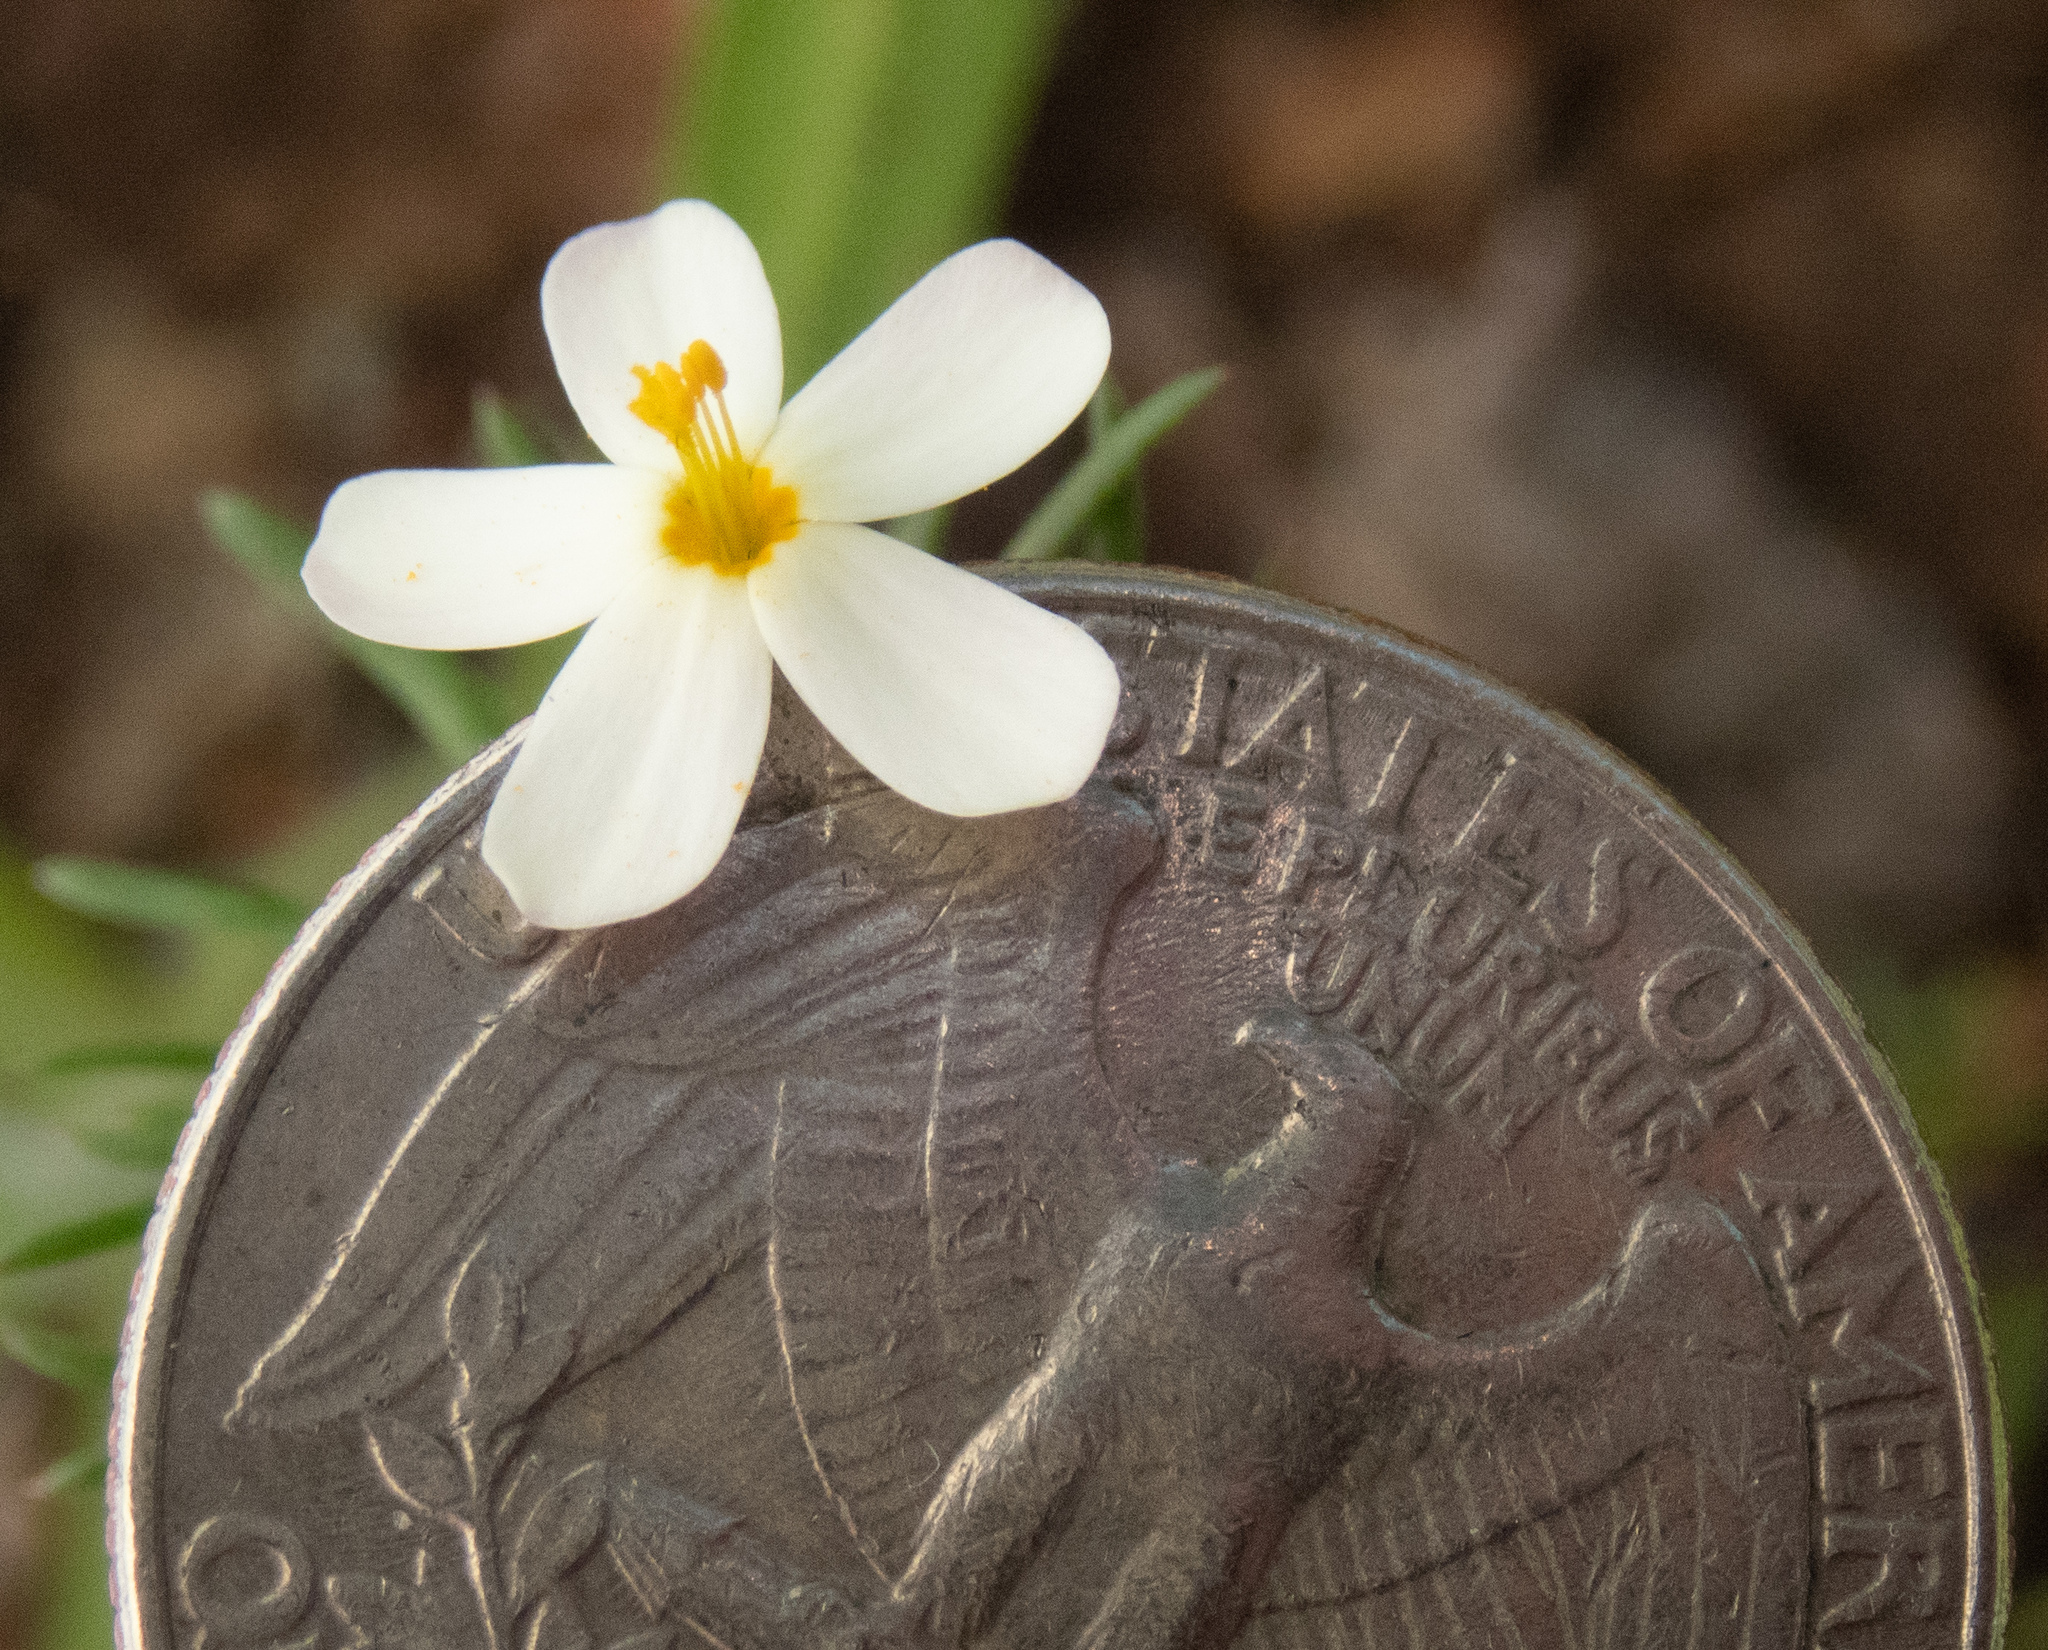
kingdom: Plantae
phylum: Tracheophyta
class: Magnoliopsida
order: Ericales
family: Polemoniaceae
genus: Leptosiphon
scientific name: Leptosiphon parviflorus
